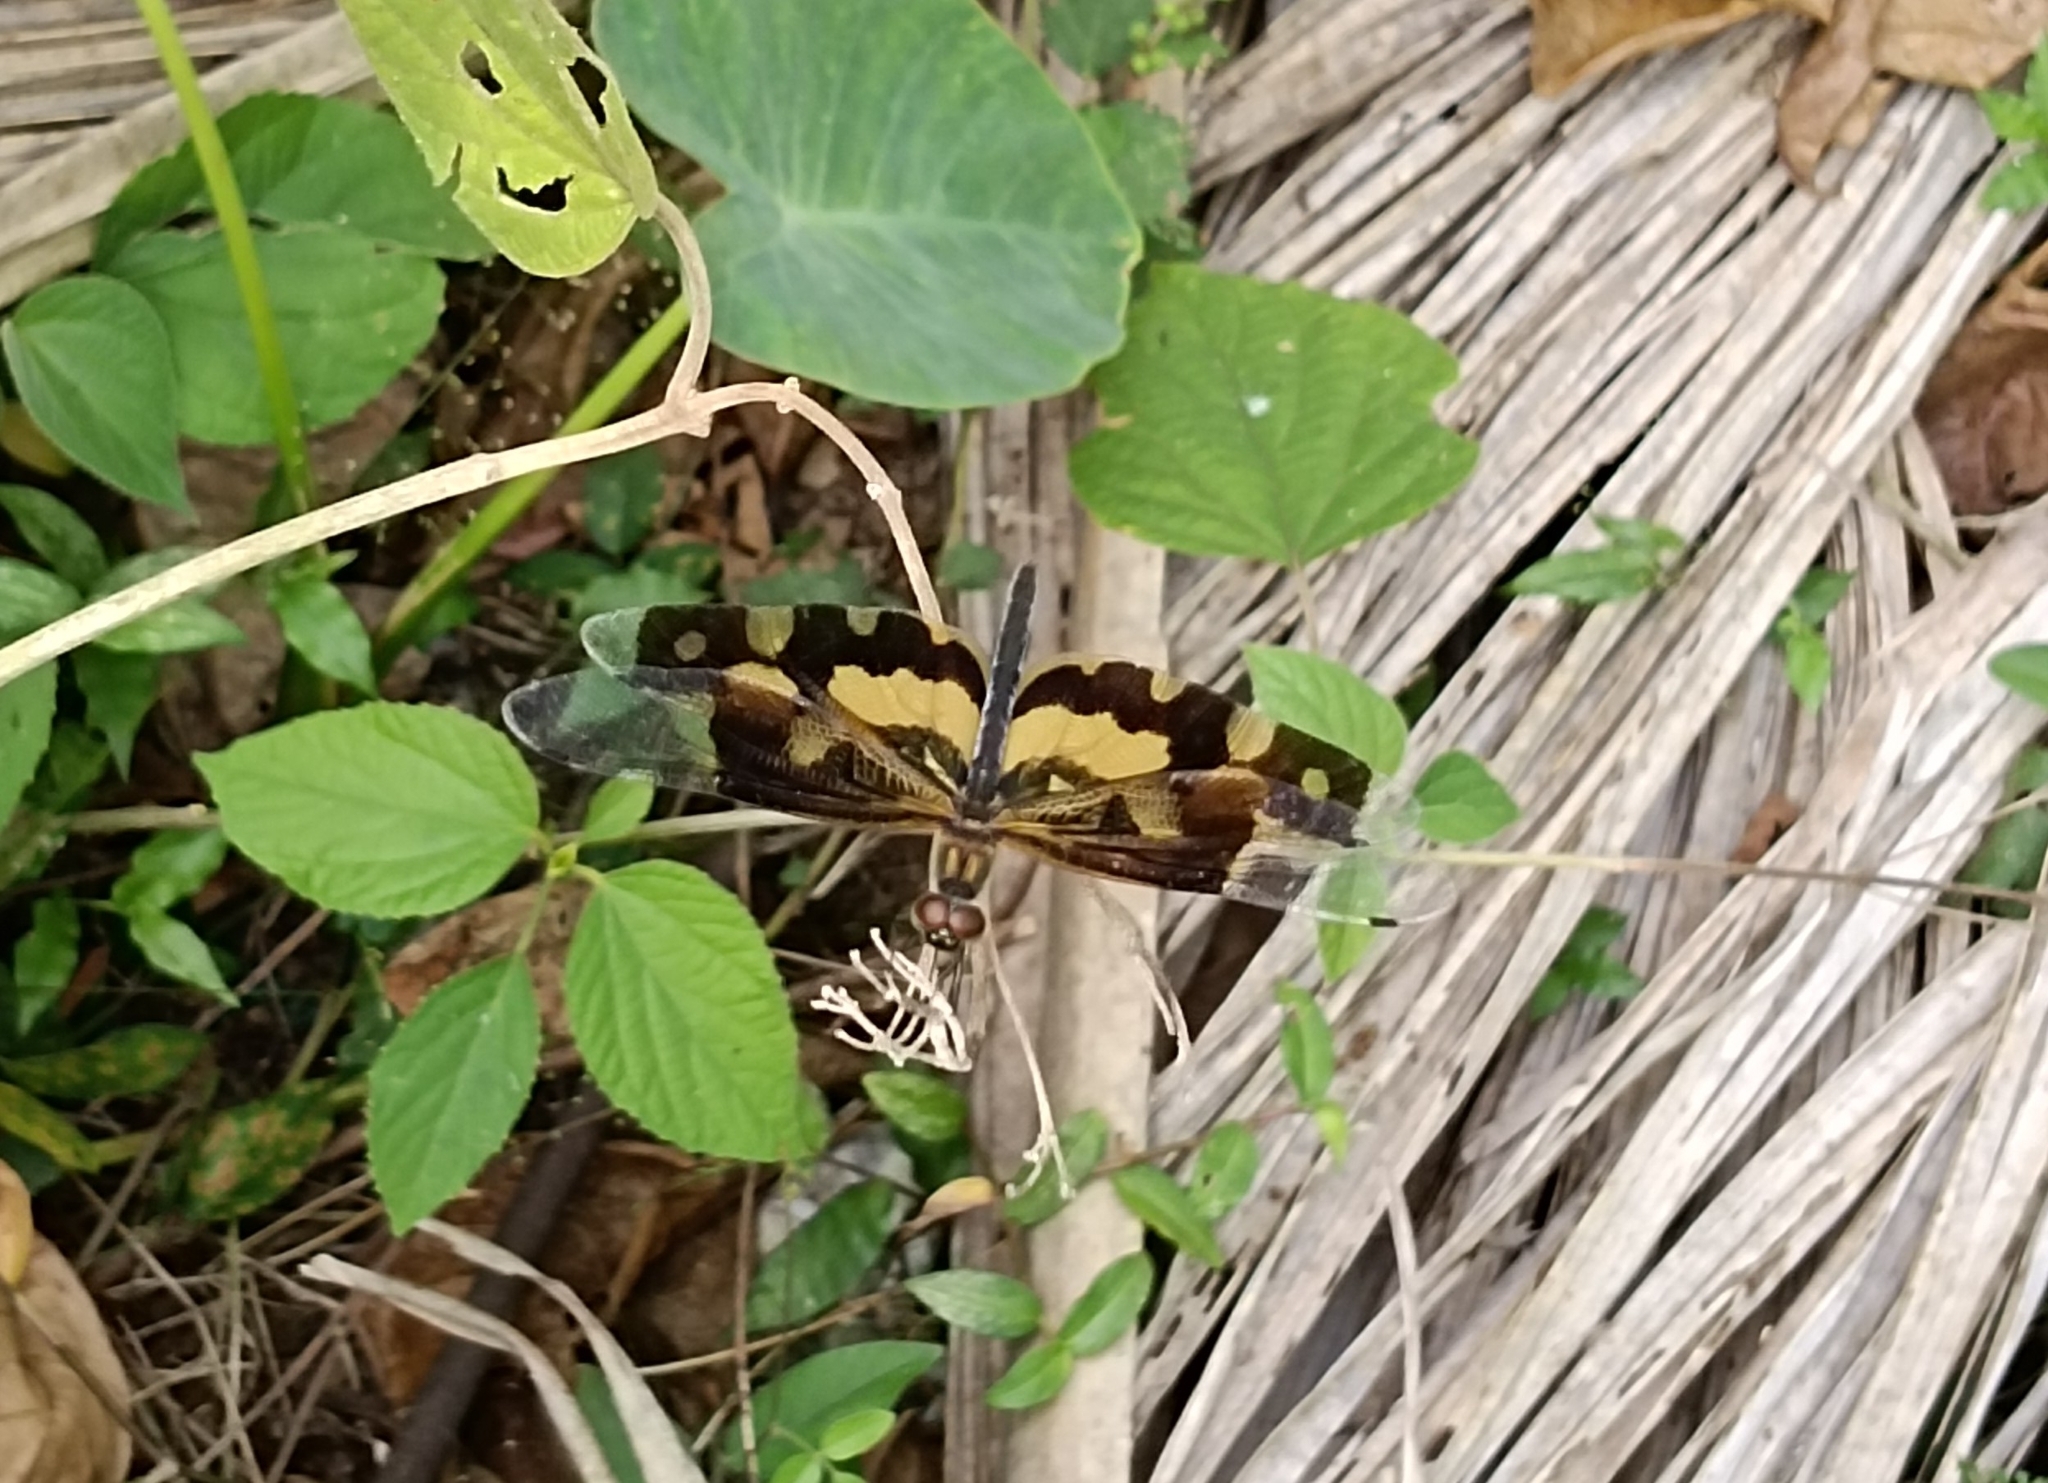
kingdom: Animalia
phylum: Arthropoda
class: Insecta
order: Odonata
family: Libellulidae
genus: Rhyothemis
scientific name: Rhyothemis variegata
